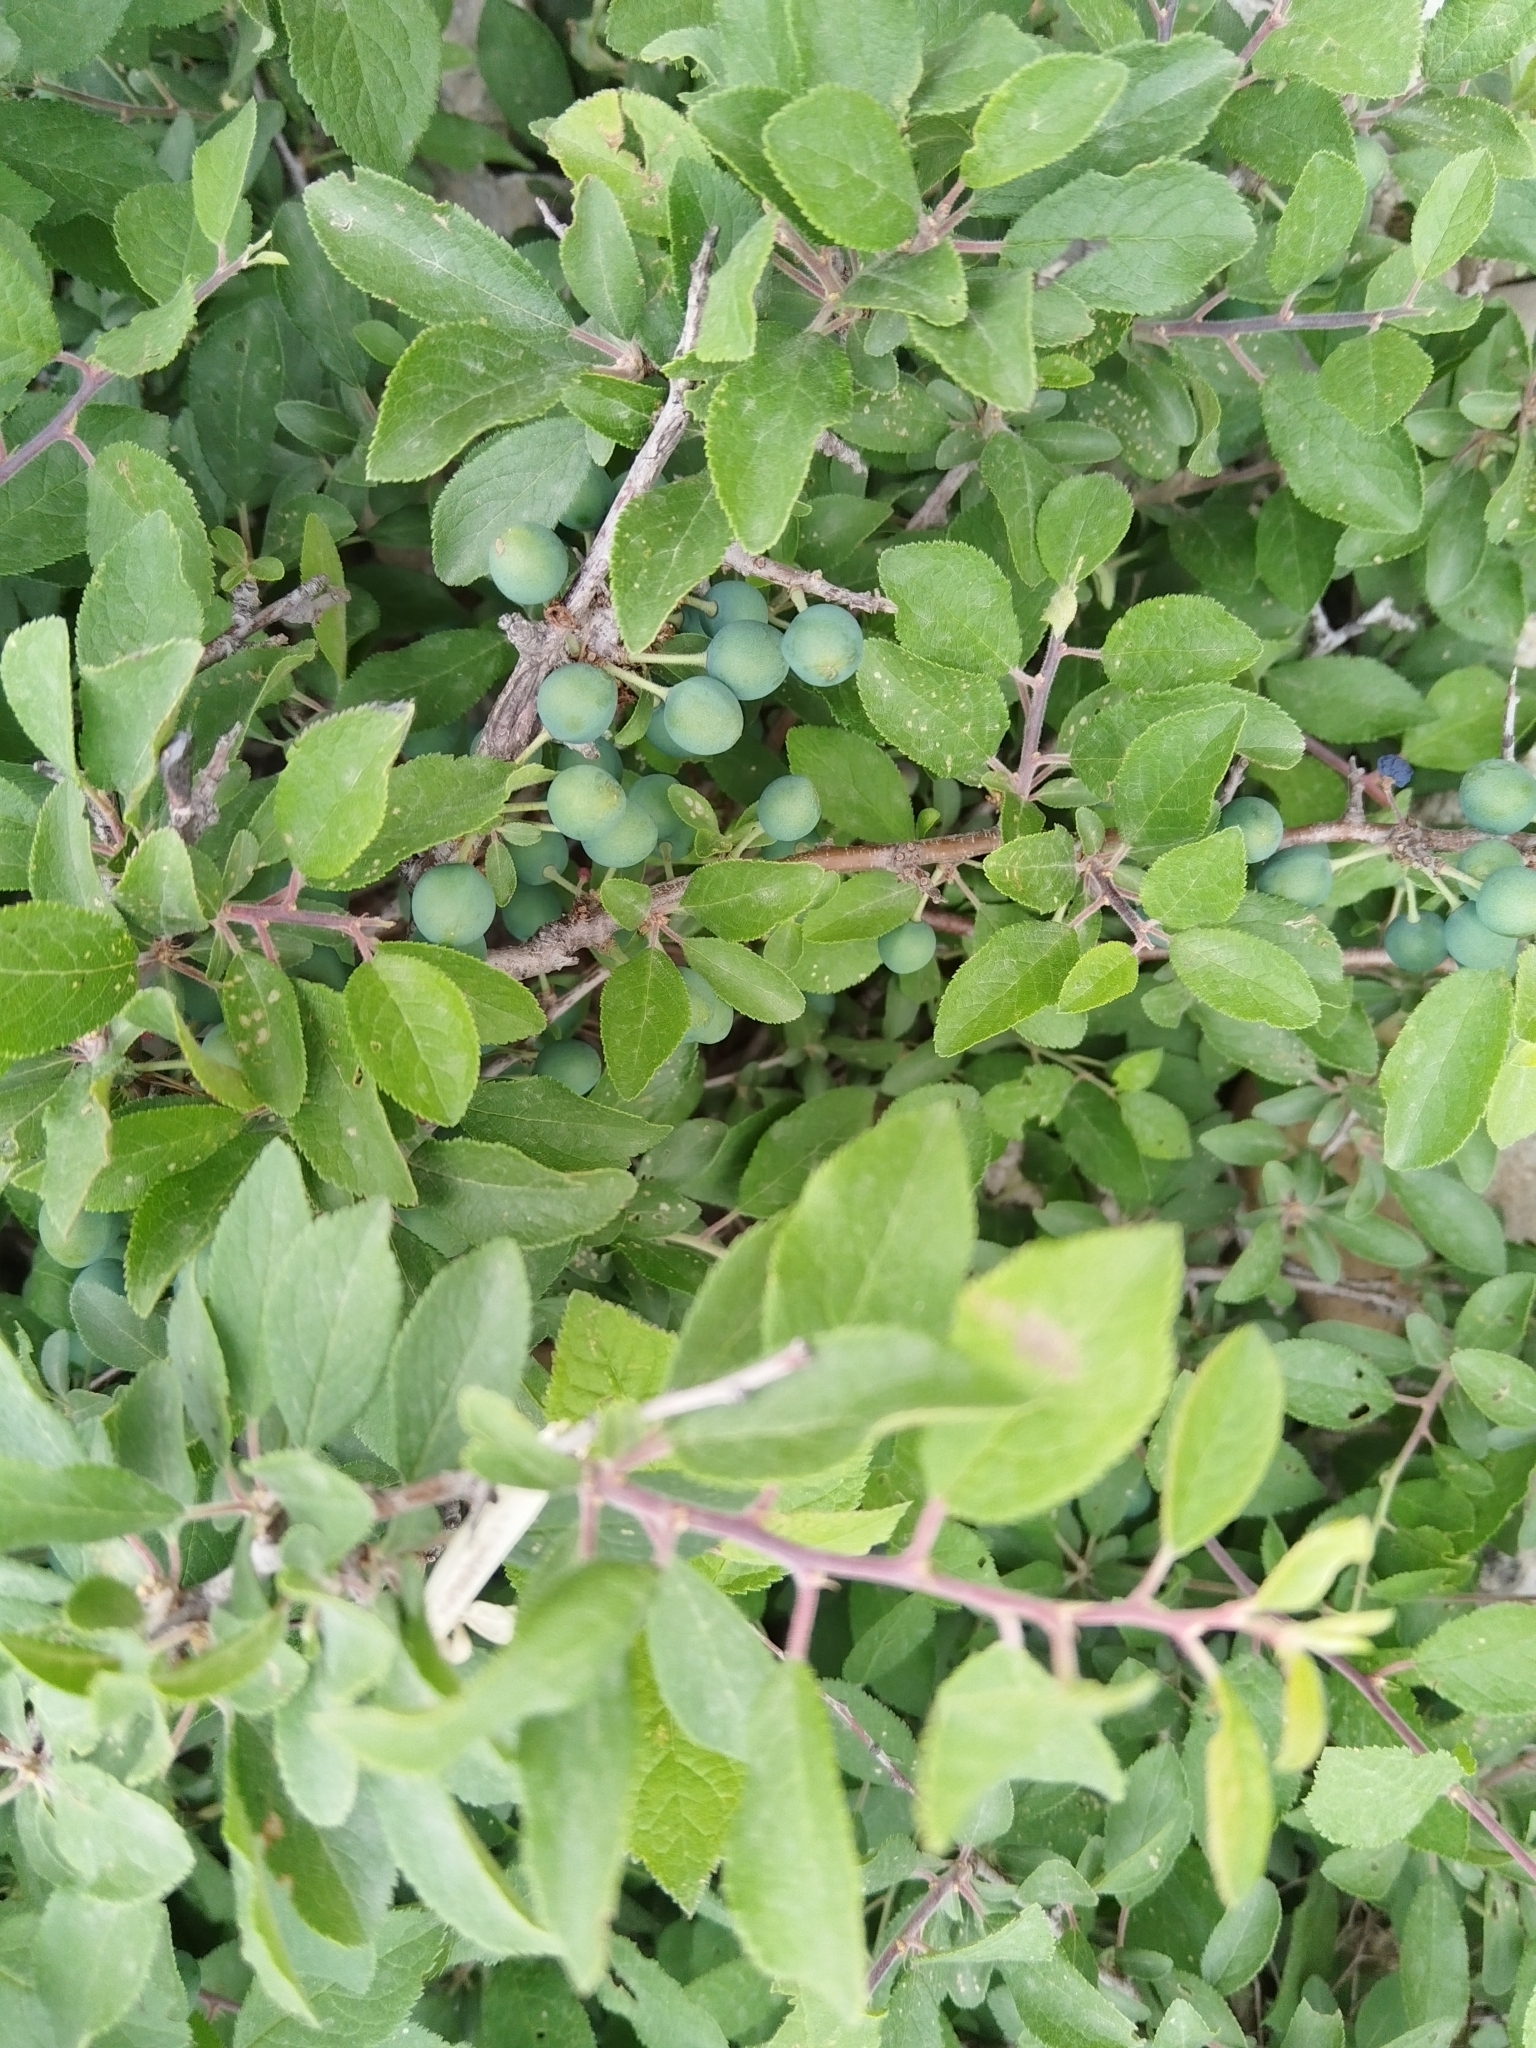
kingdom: Plantae
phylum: Tracheophyta
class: Magnoliopsida
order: Rosales
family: Rosaceae
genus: Prunus
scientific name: Prunus spinosa
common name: Blackthorn
